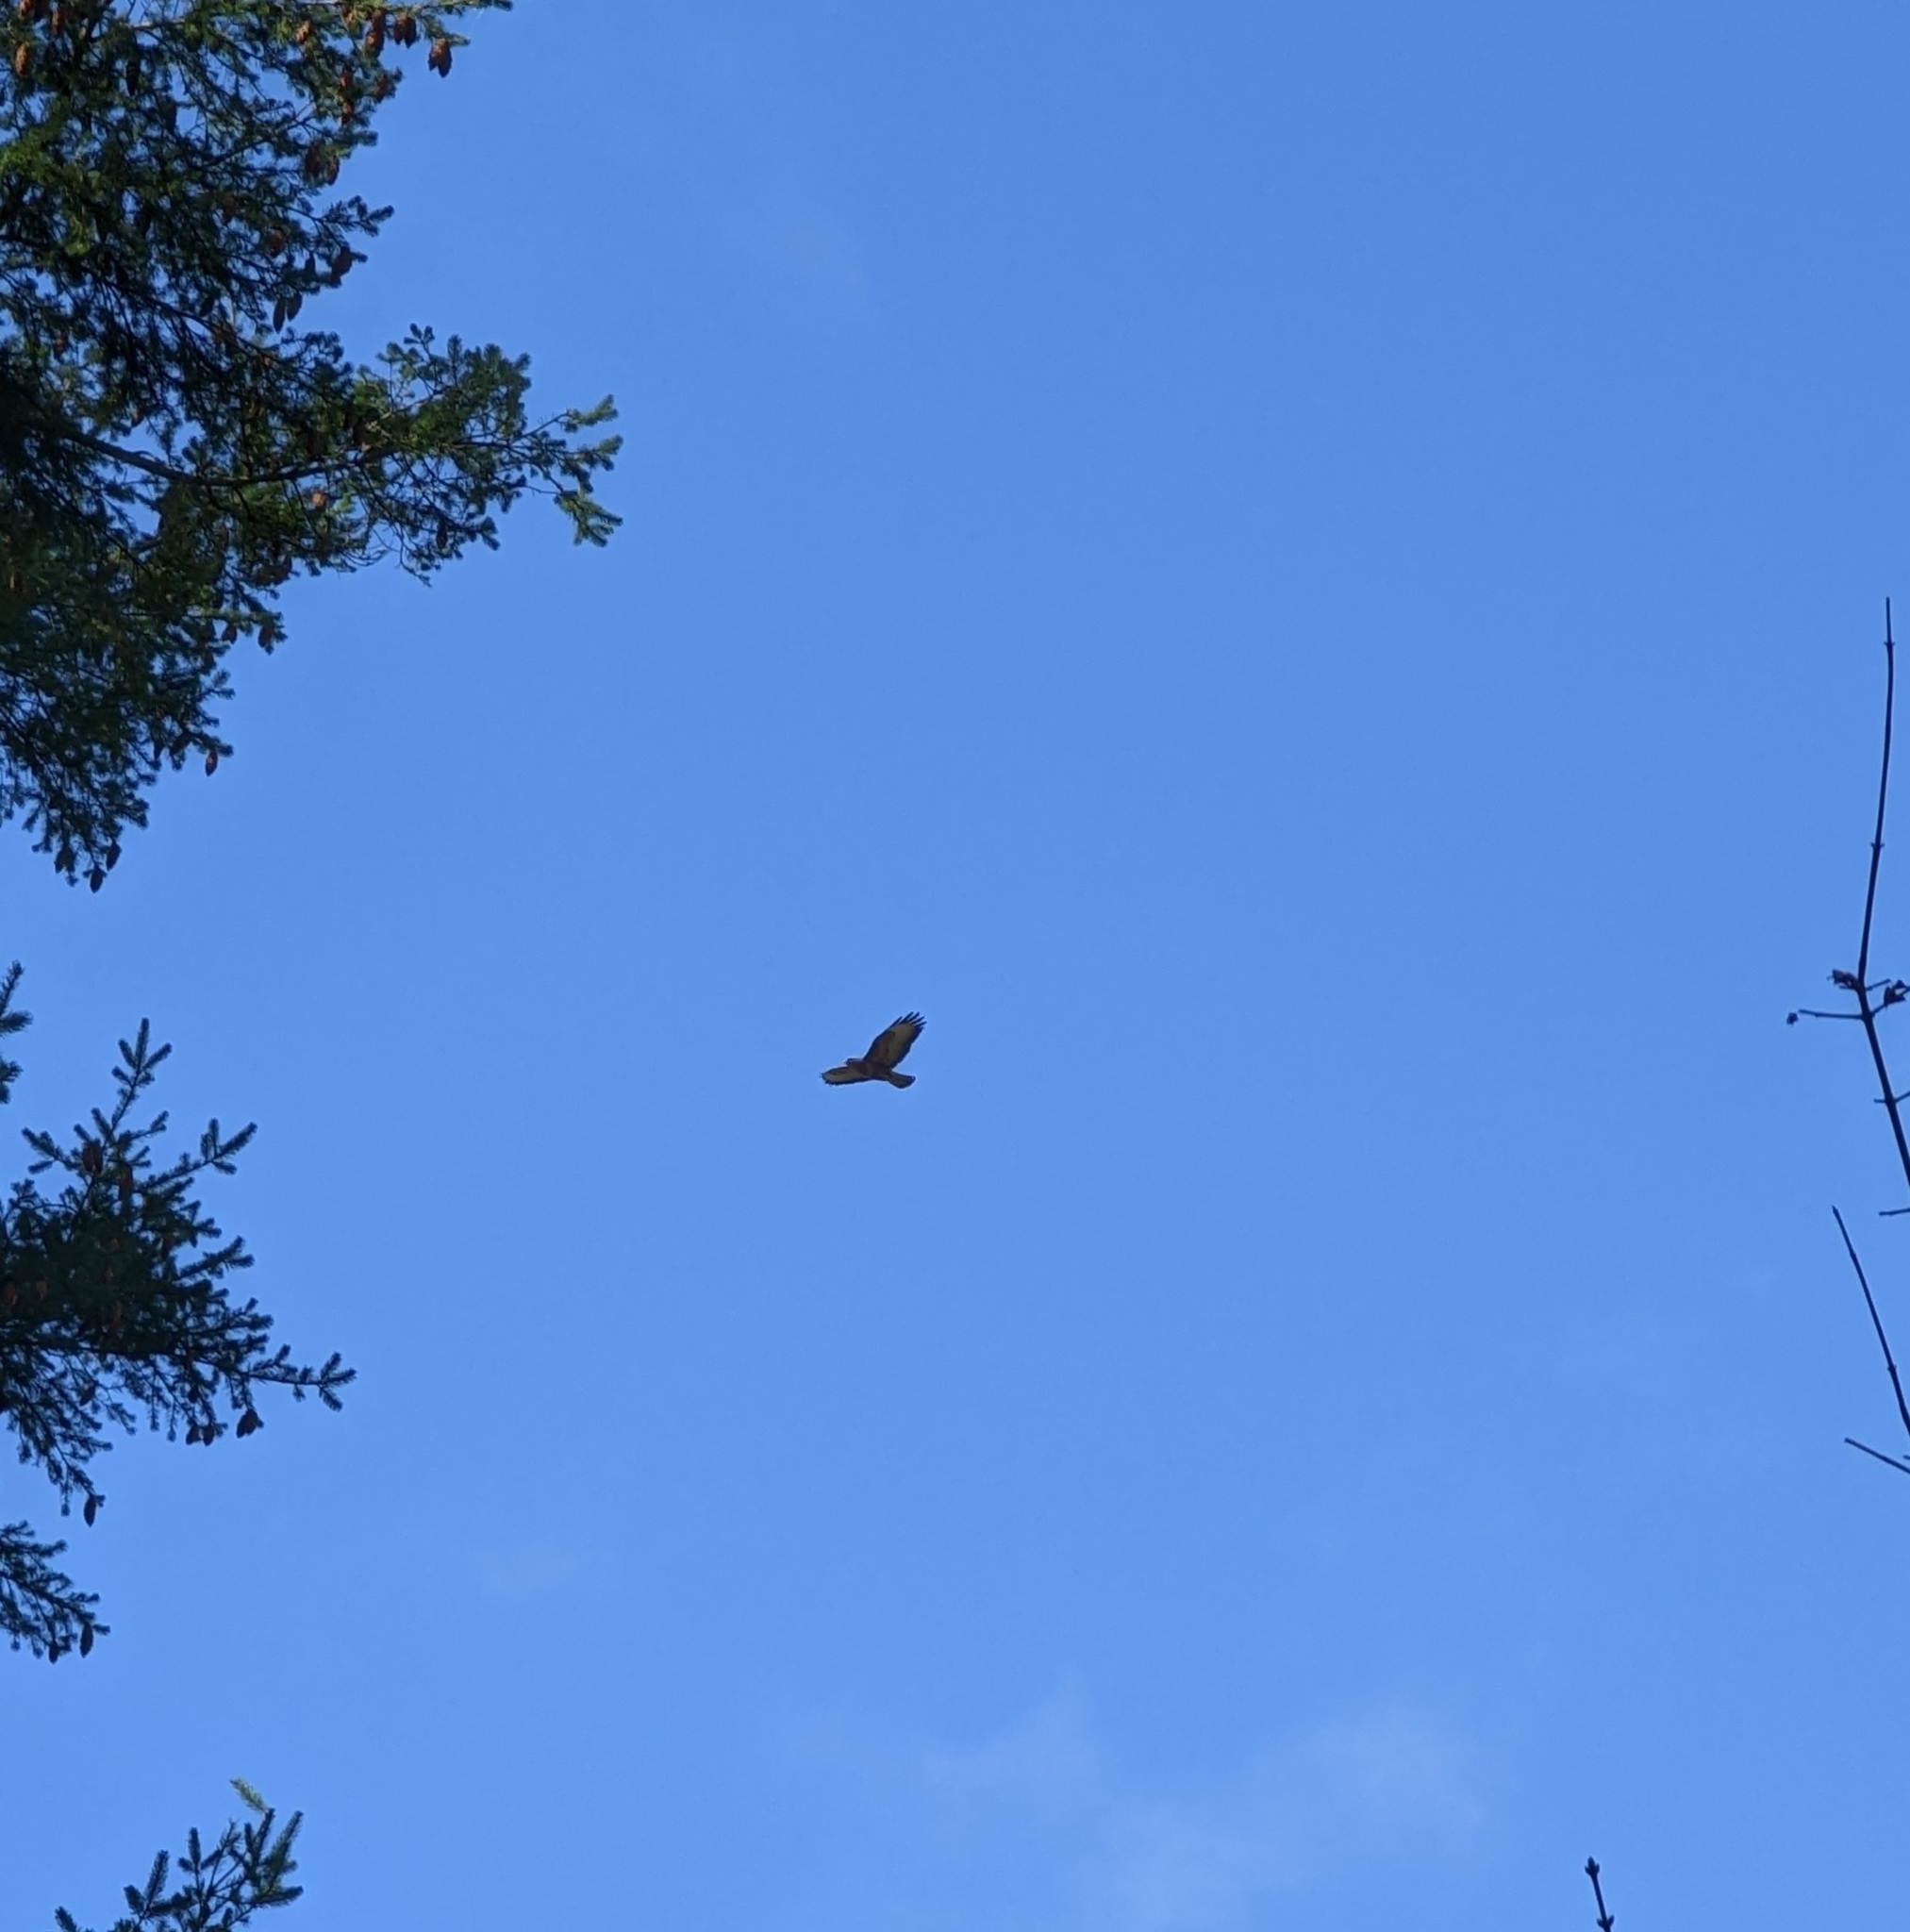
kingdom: Animalia
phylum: Chordata
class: Aves
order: Accipitriformes
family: Accipitridae
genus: Buteo
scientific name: Buteo buteo
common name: Common buzzard
